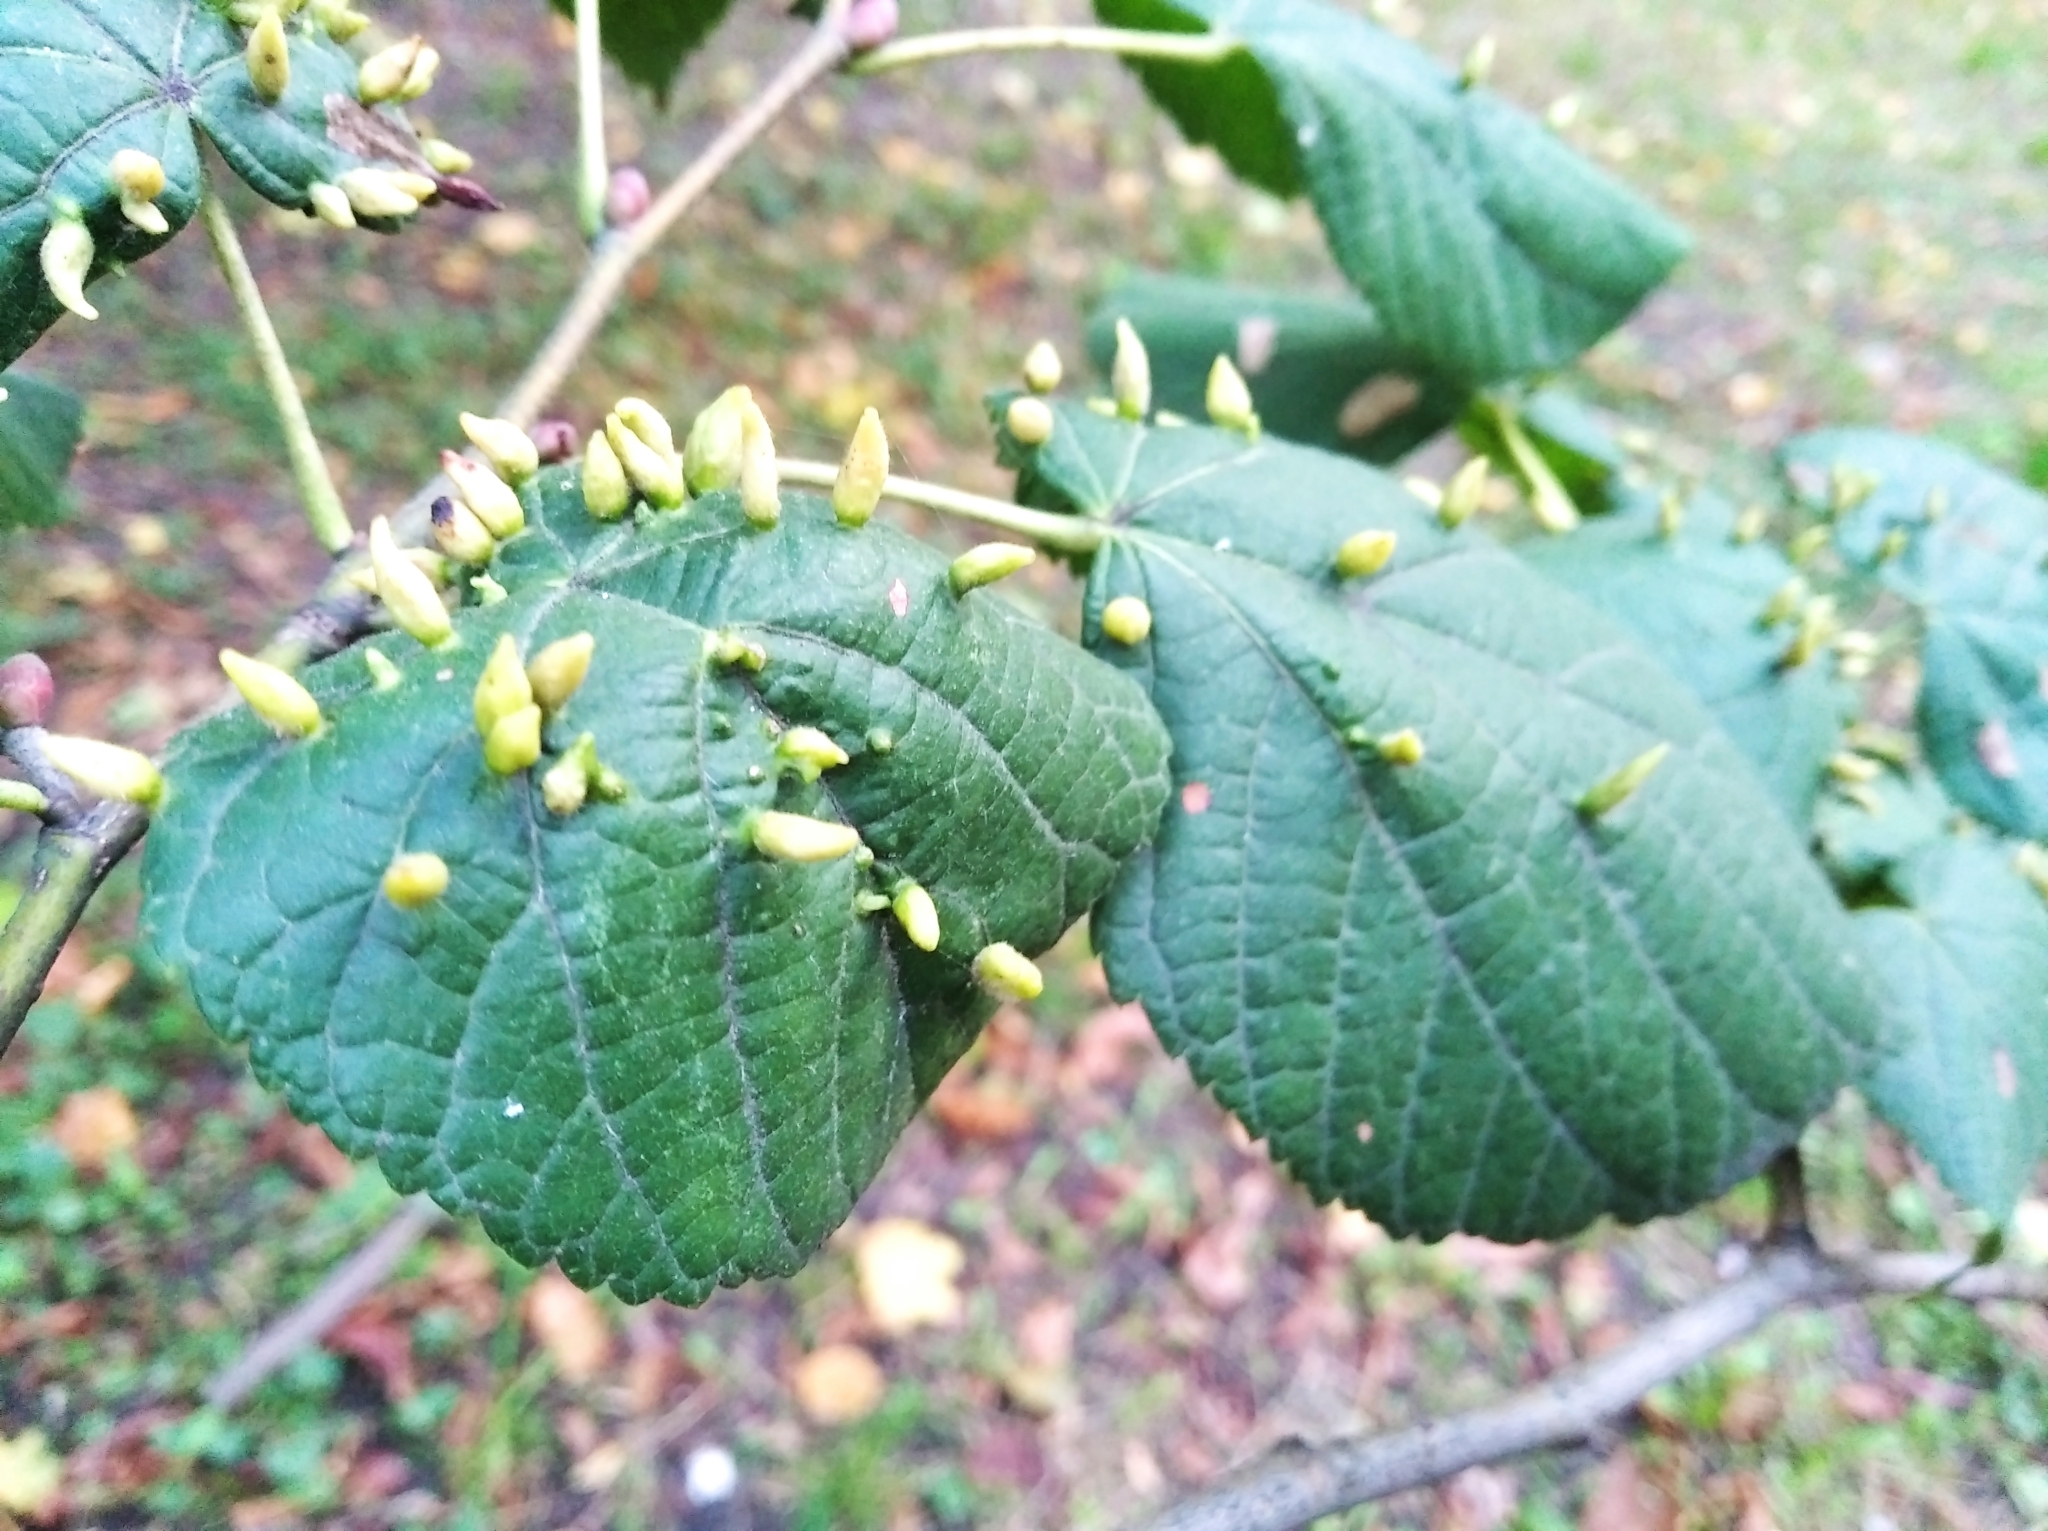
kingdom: Animalia
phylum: Arthropoda
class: Arachnida
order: Trombidiformes
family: Eriophyidae
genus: Eriophyes
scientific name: Eriophyes tiliae
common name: Red nail gall mite
